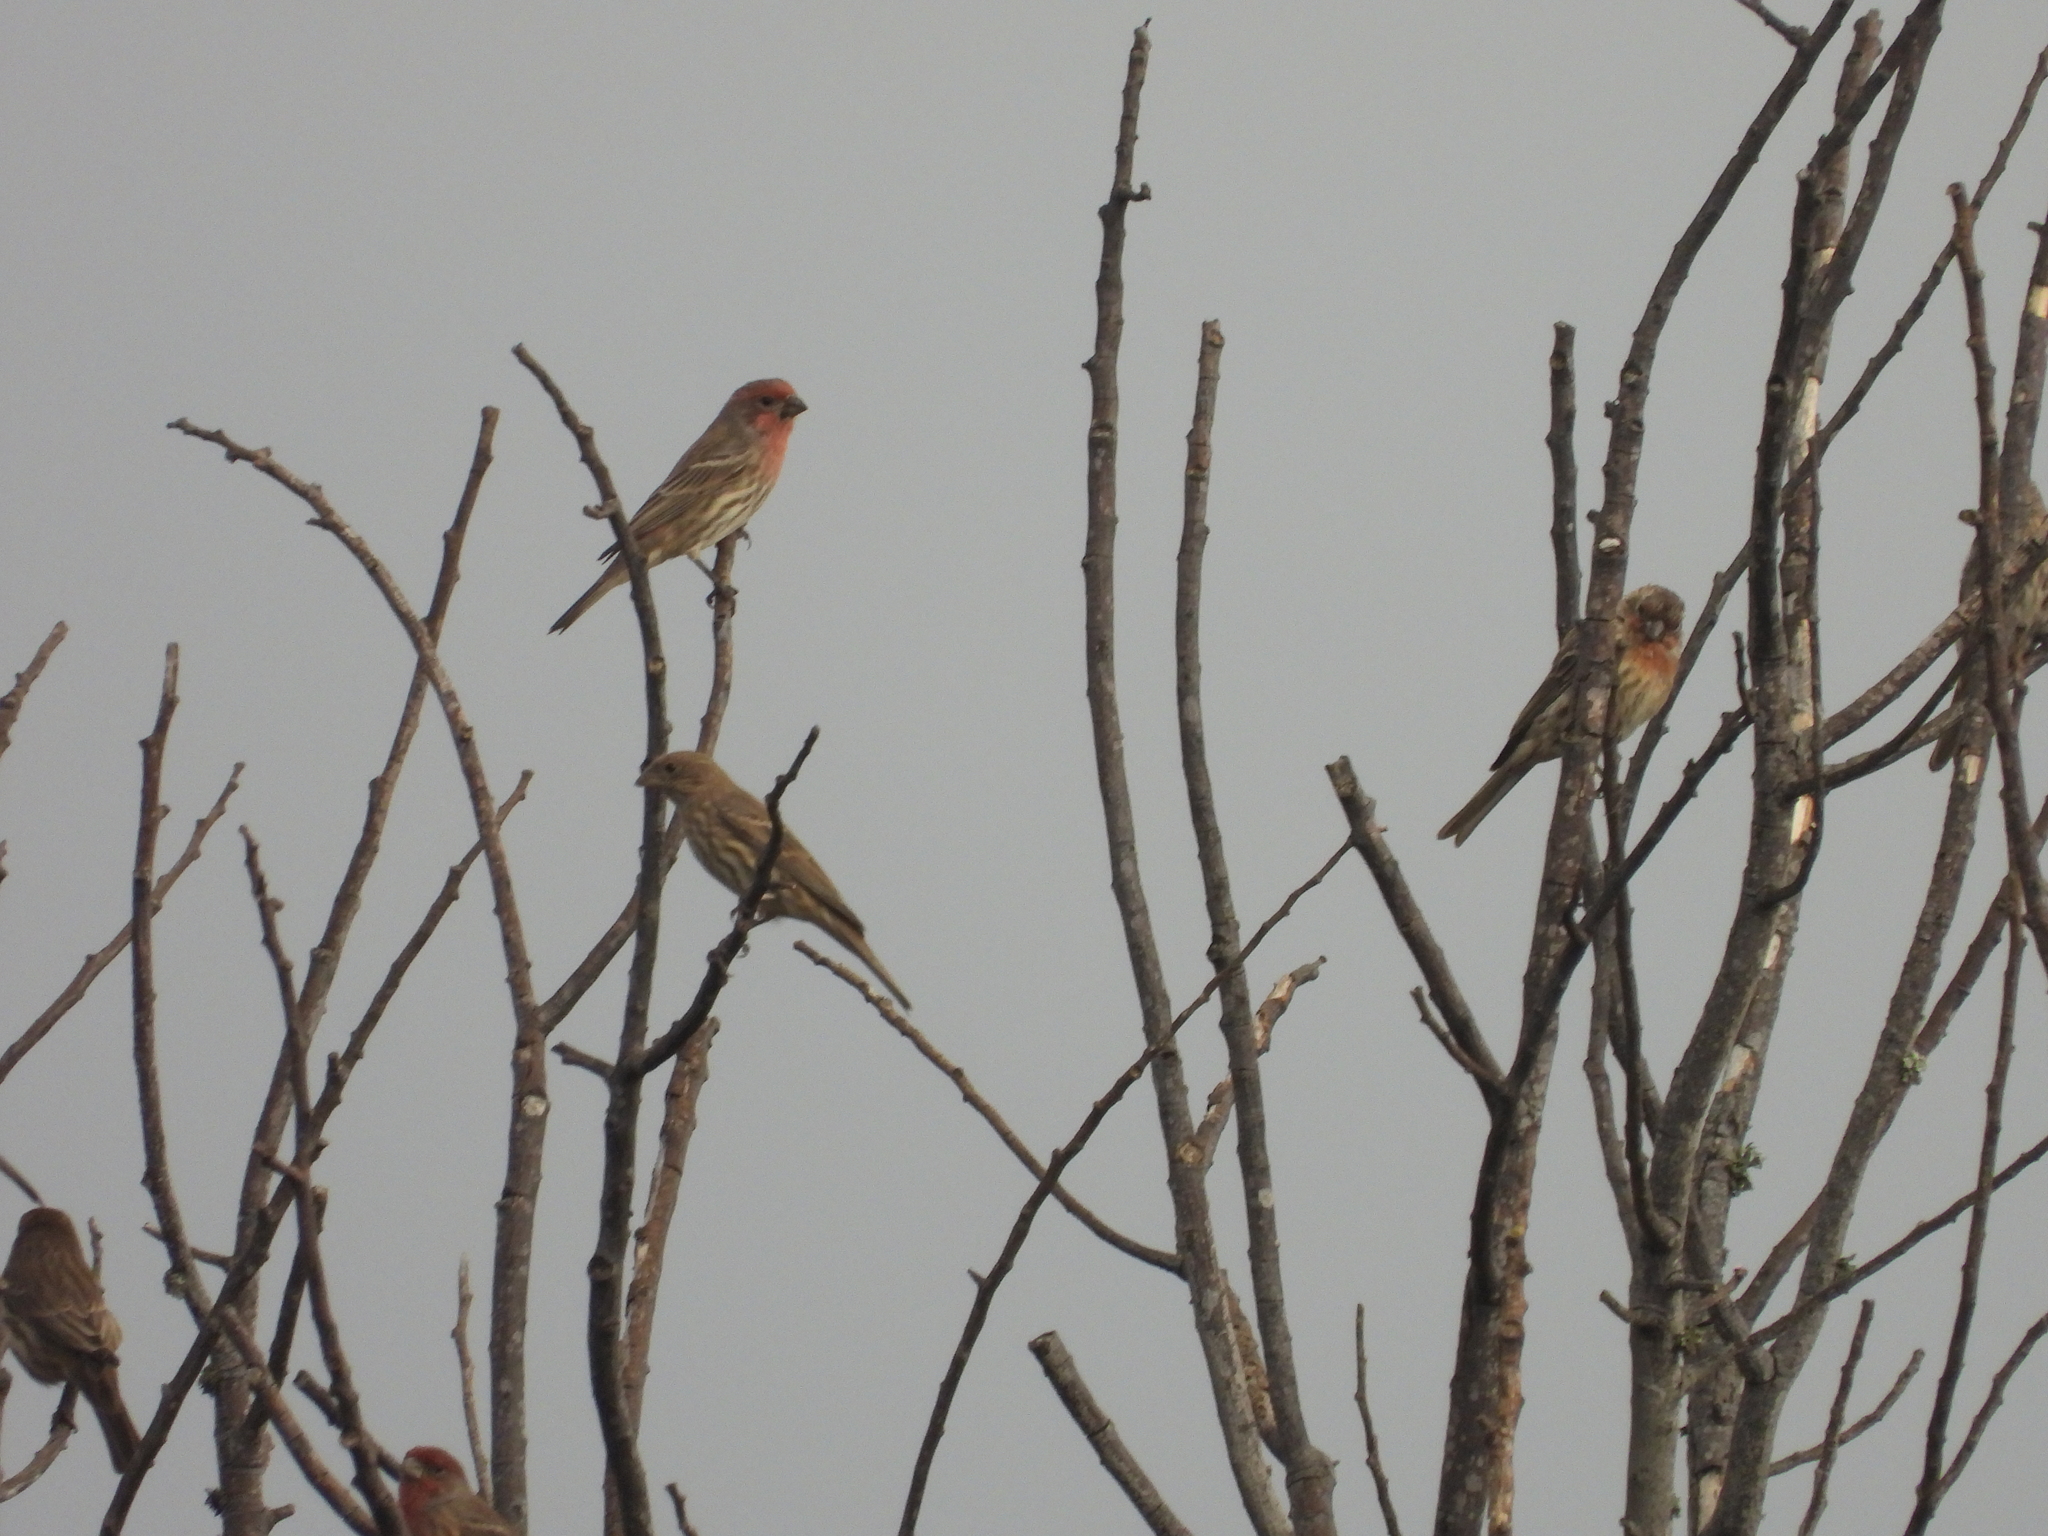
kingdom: Animalia
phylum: Chordata
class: Aves
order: Passeriformes
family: Fringillidae
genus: Haemorhous
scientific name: Haemorhous mexicanus
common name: House finch
